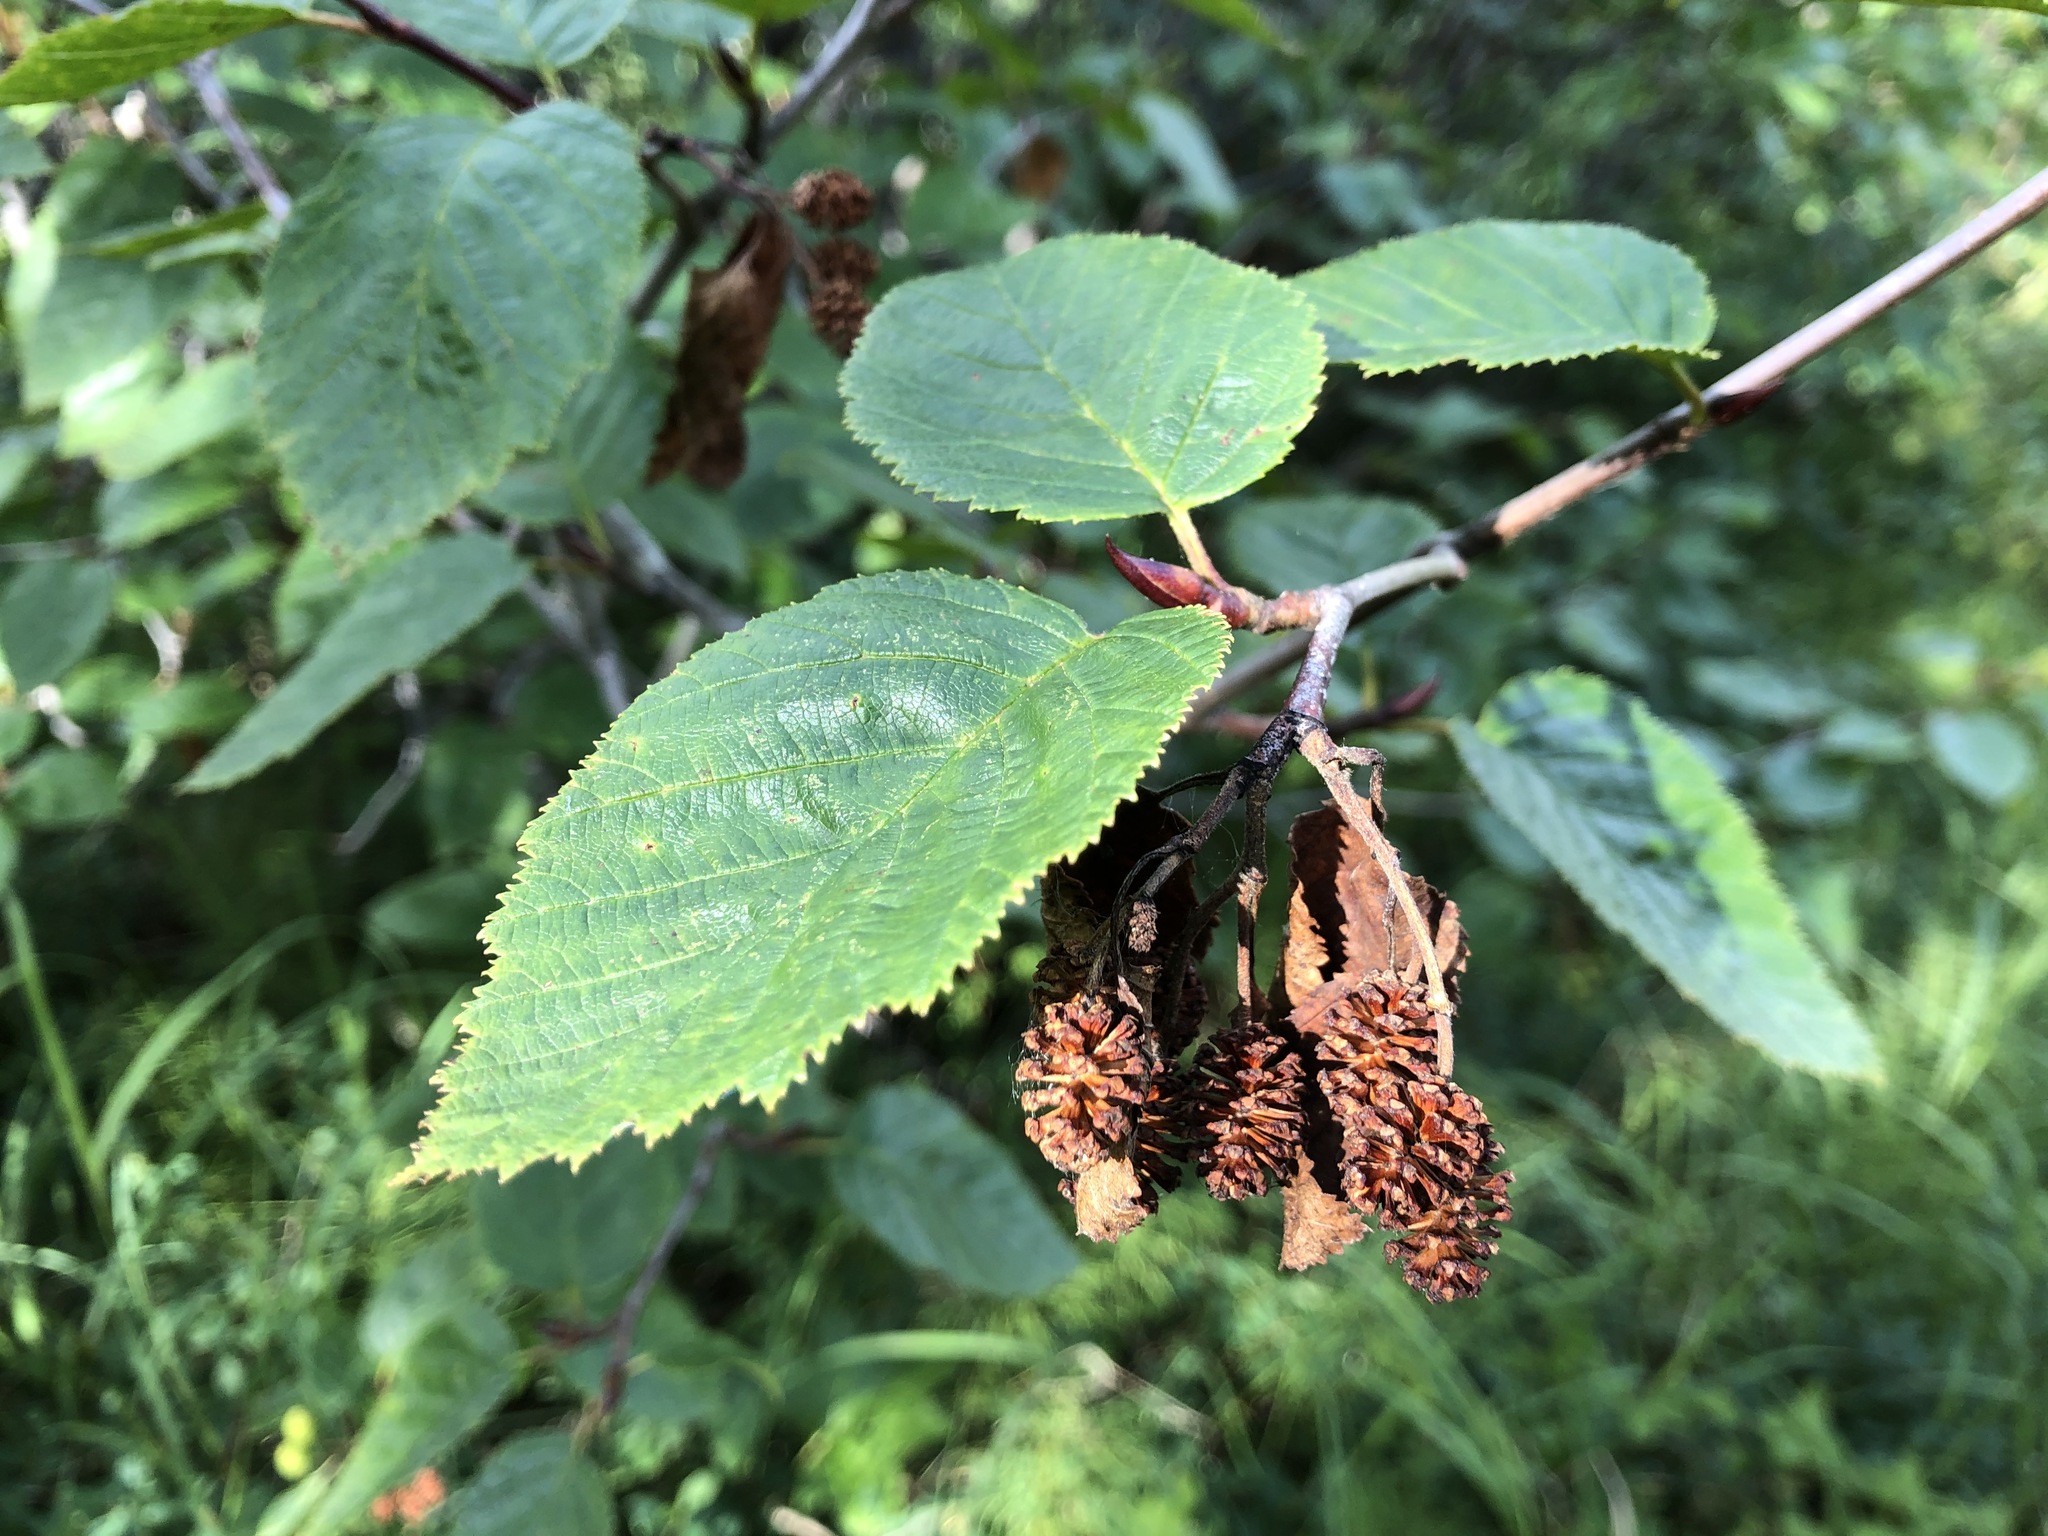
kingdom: Plantae
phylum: Tracheophyta
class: Magnoliopsida
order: Fagales
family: Betulaceae
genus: Alnus
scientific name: Alnus alnobetula
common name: Green alder
